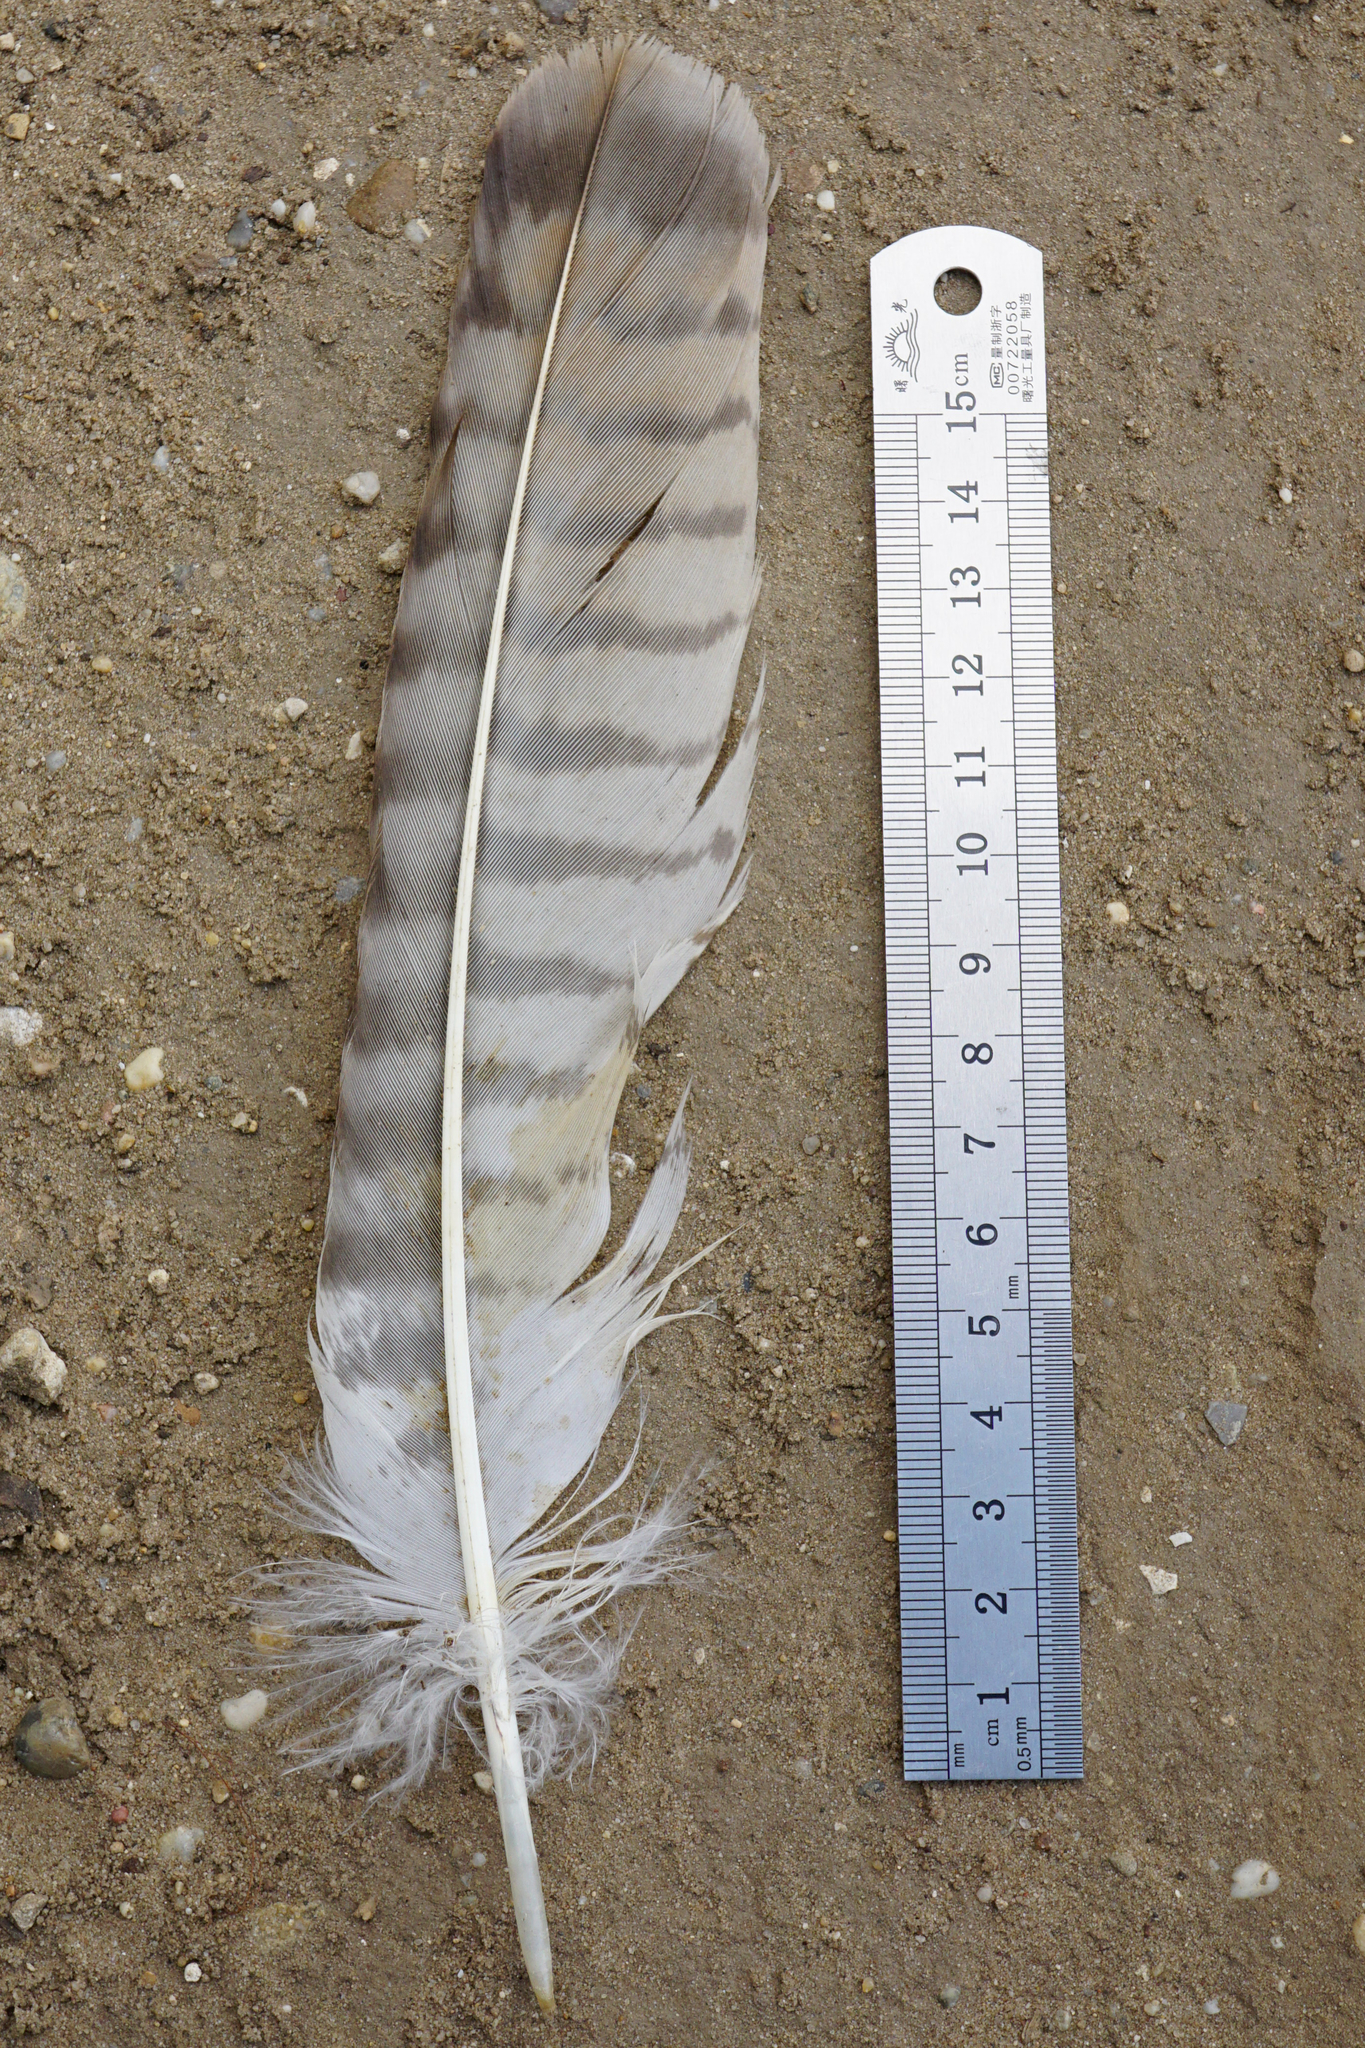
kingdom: Animalia
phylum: Chordata
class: Aves
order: Accipitriformes
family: Accipitridae
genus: Buteo
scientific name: Buteo buteo
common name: Common buzzard
